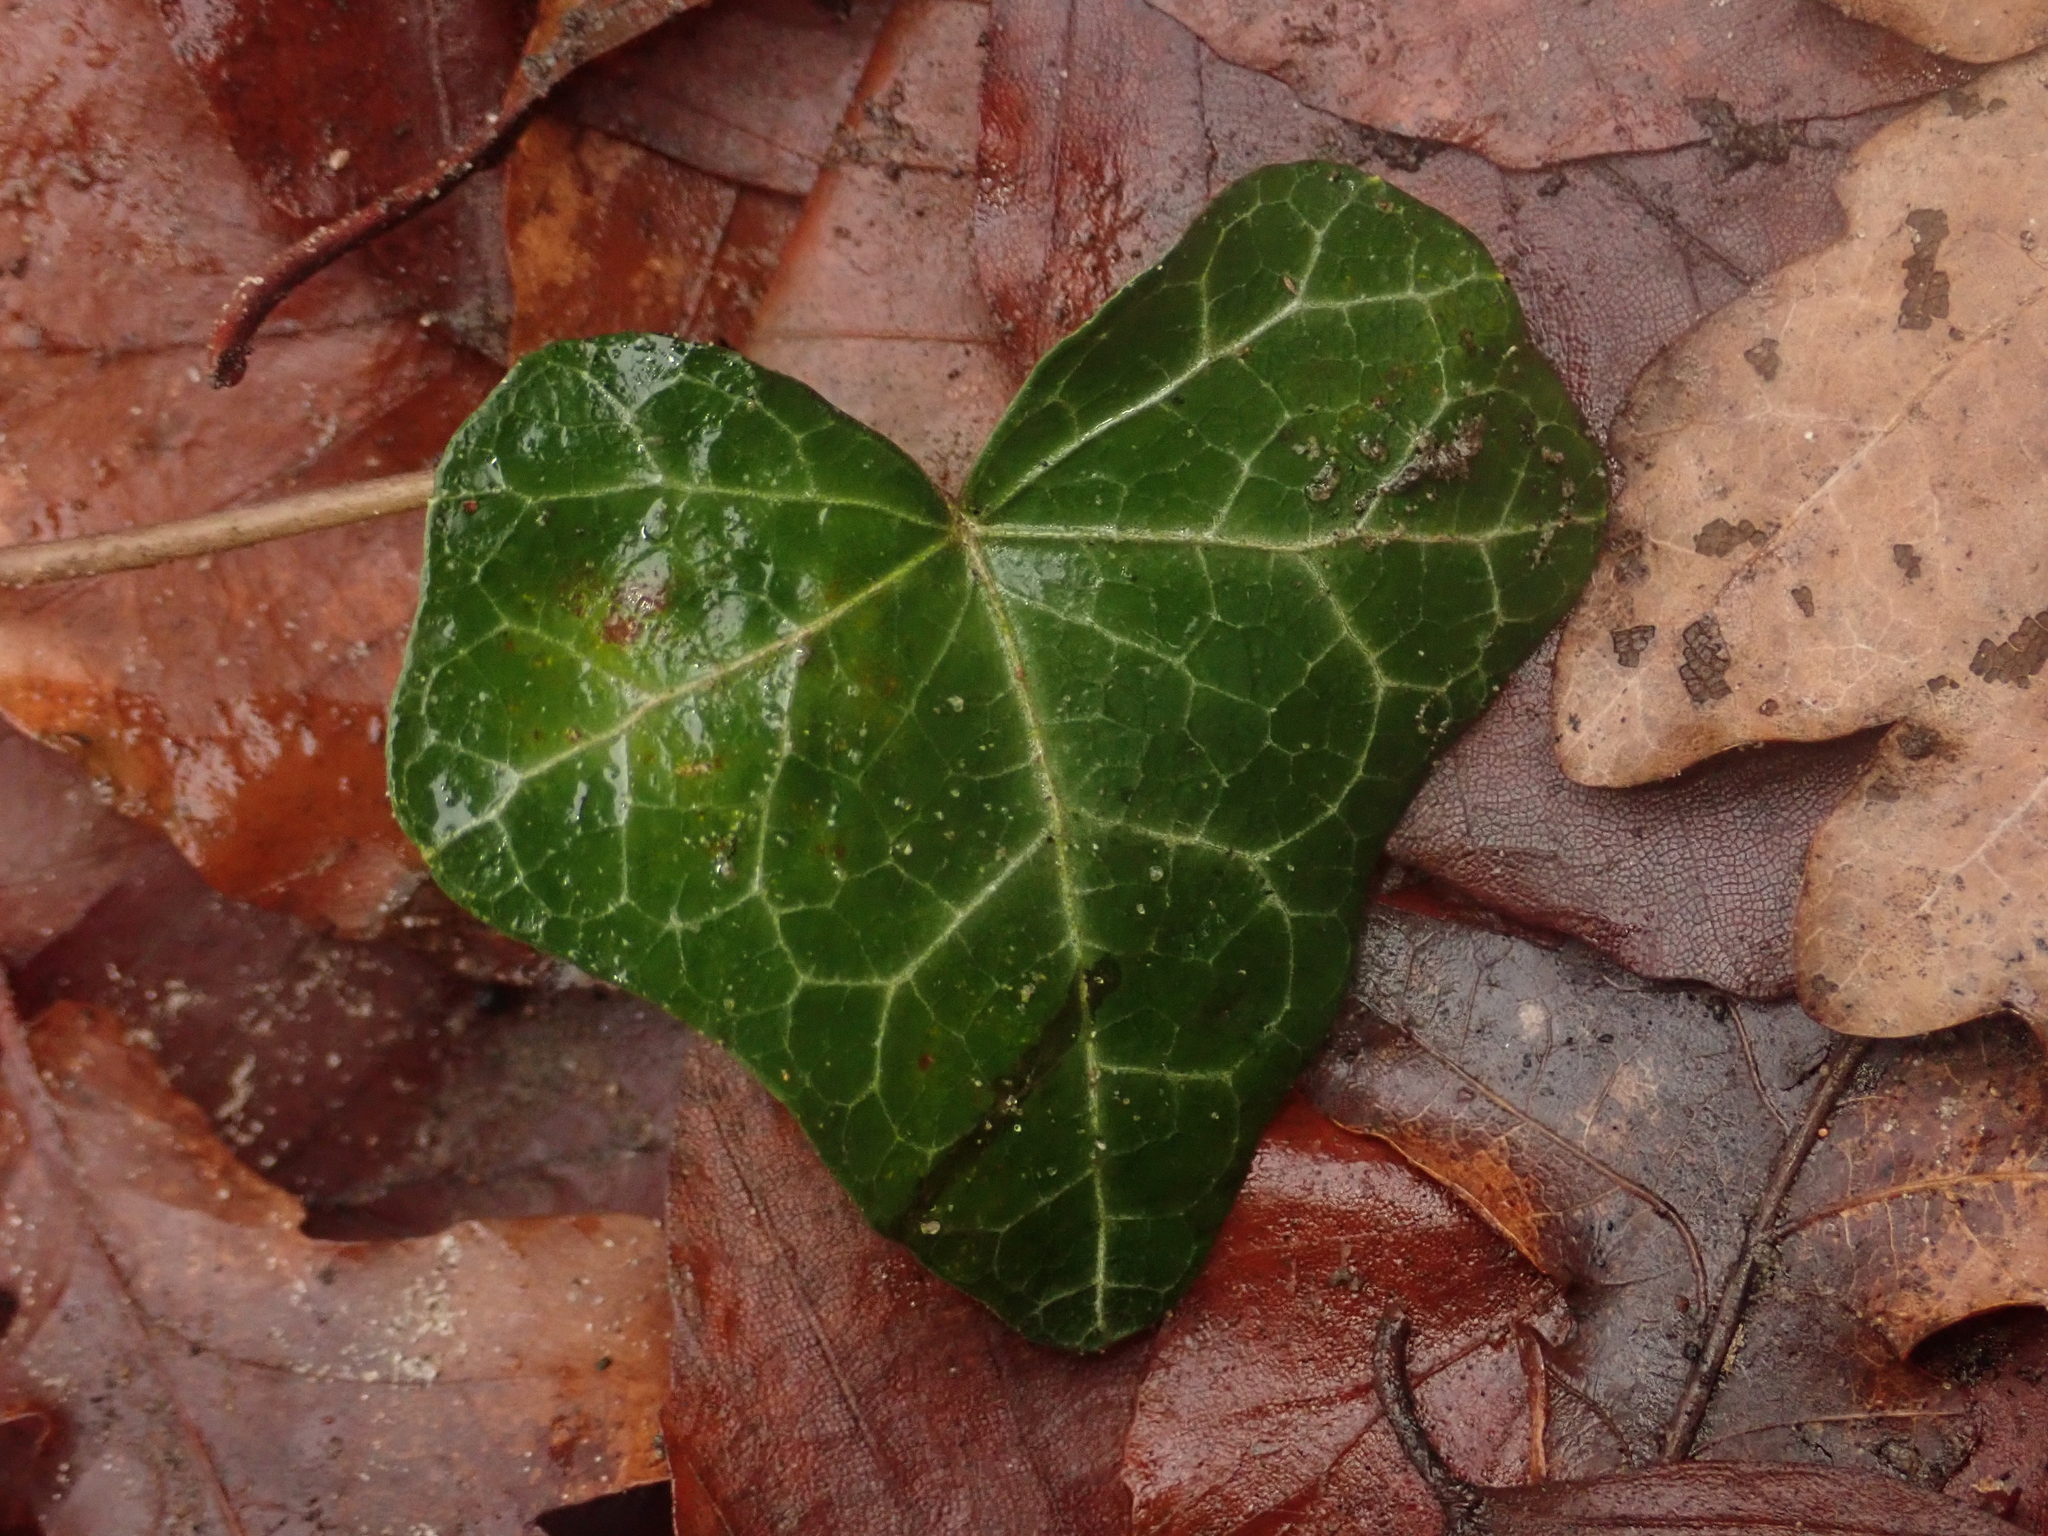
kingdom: Plantae
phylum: Tracheophyta
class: Magnoliopsida
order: Apiales
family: Araliaceae
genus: Hedera
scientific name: Hedera helix
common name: Ivy
